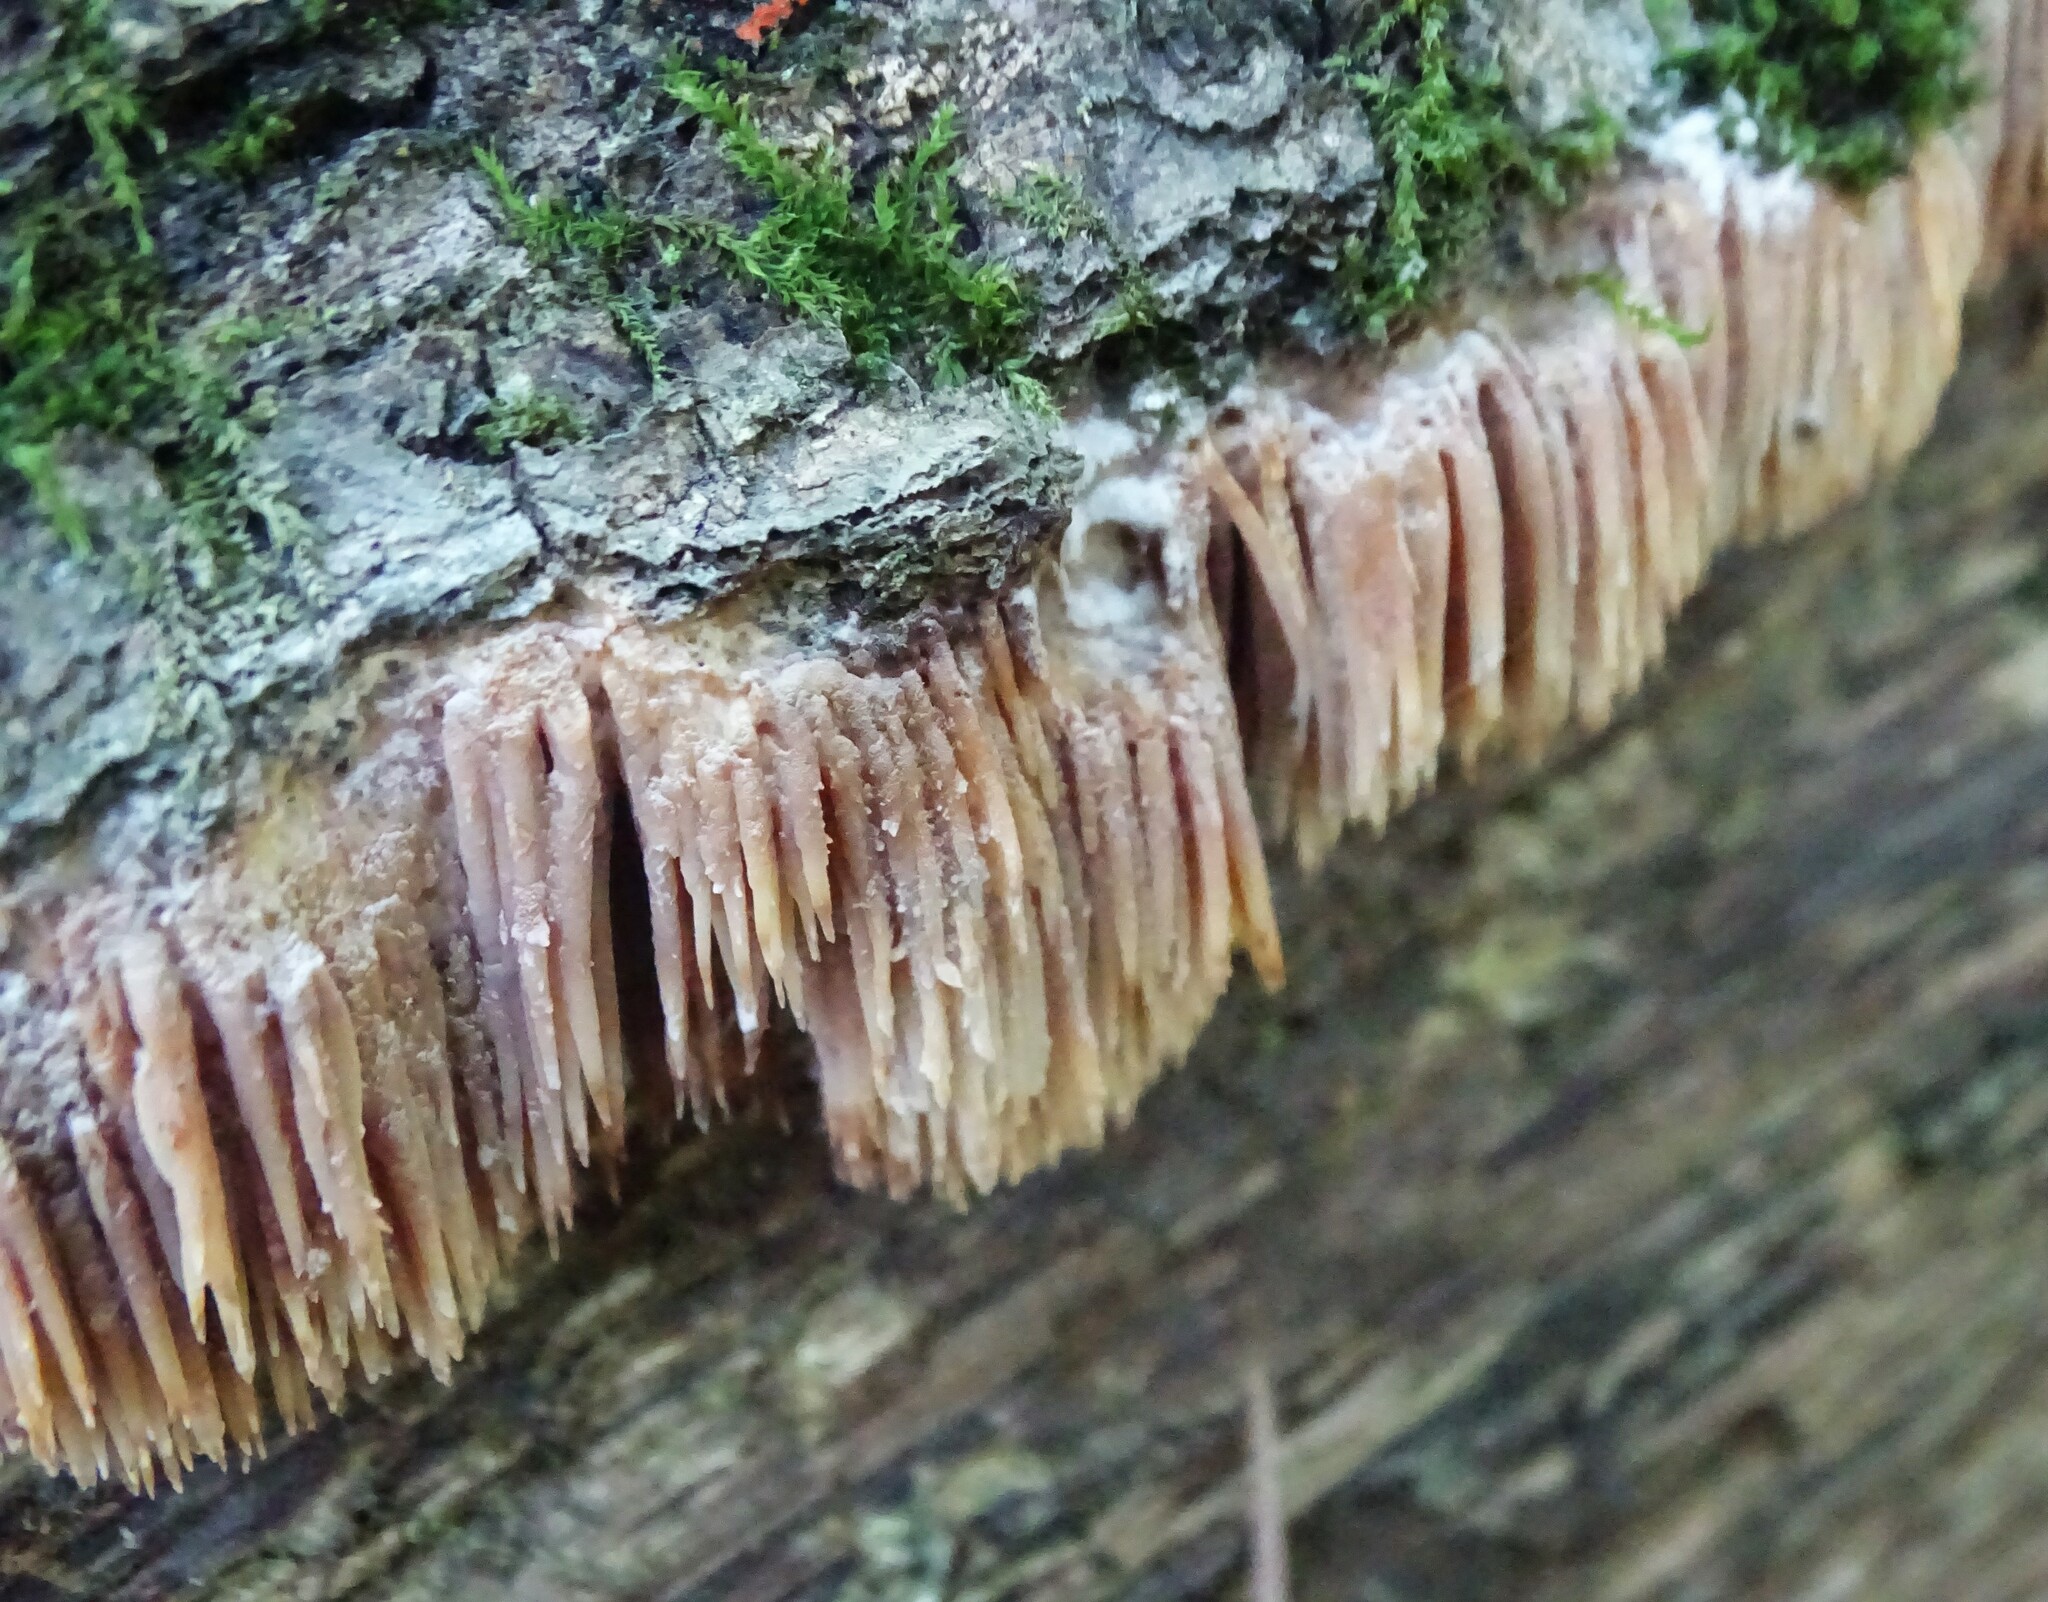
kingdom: Fungi
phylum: Basidiomycota
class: Agaricomycetes
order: Agaricales
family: Radulomycetaceae
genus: Radulomyces
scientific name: Radulomyces copelandii
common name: Asian beauty
